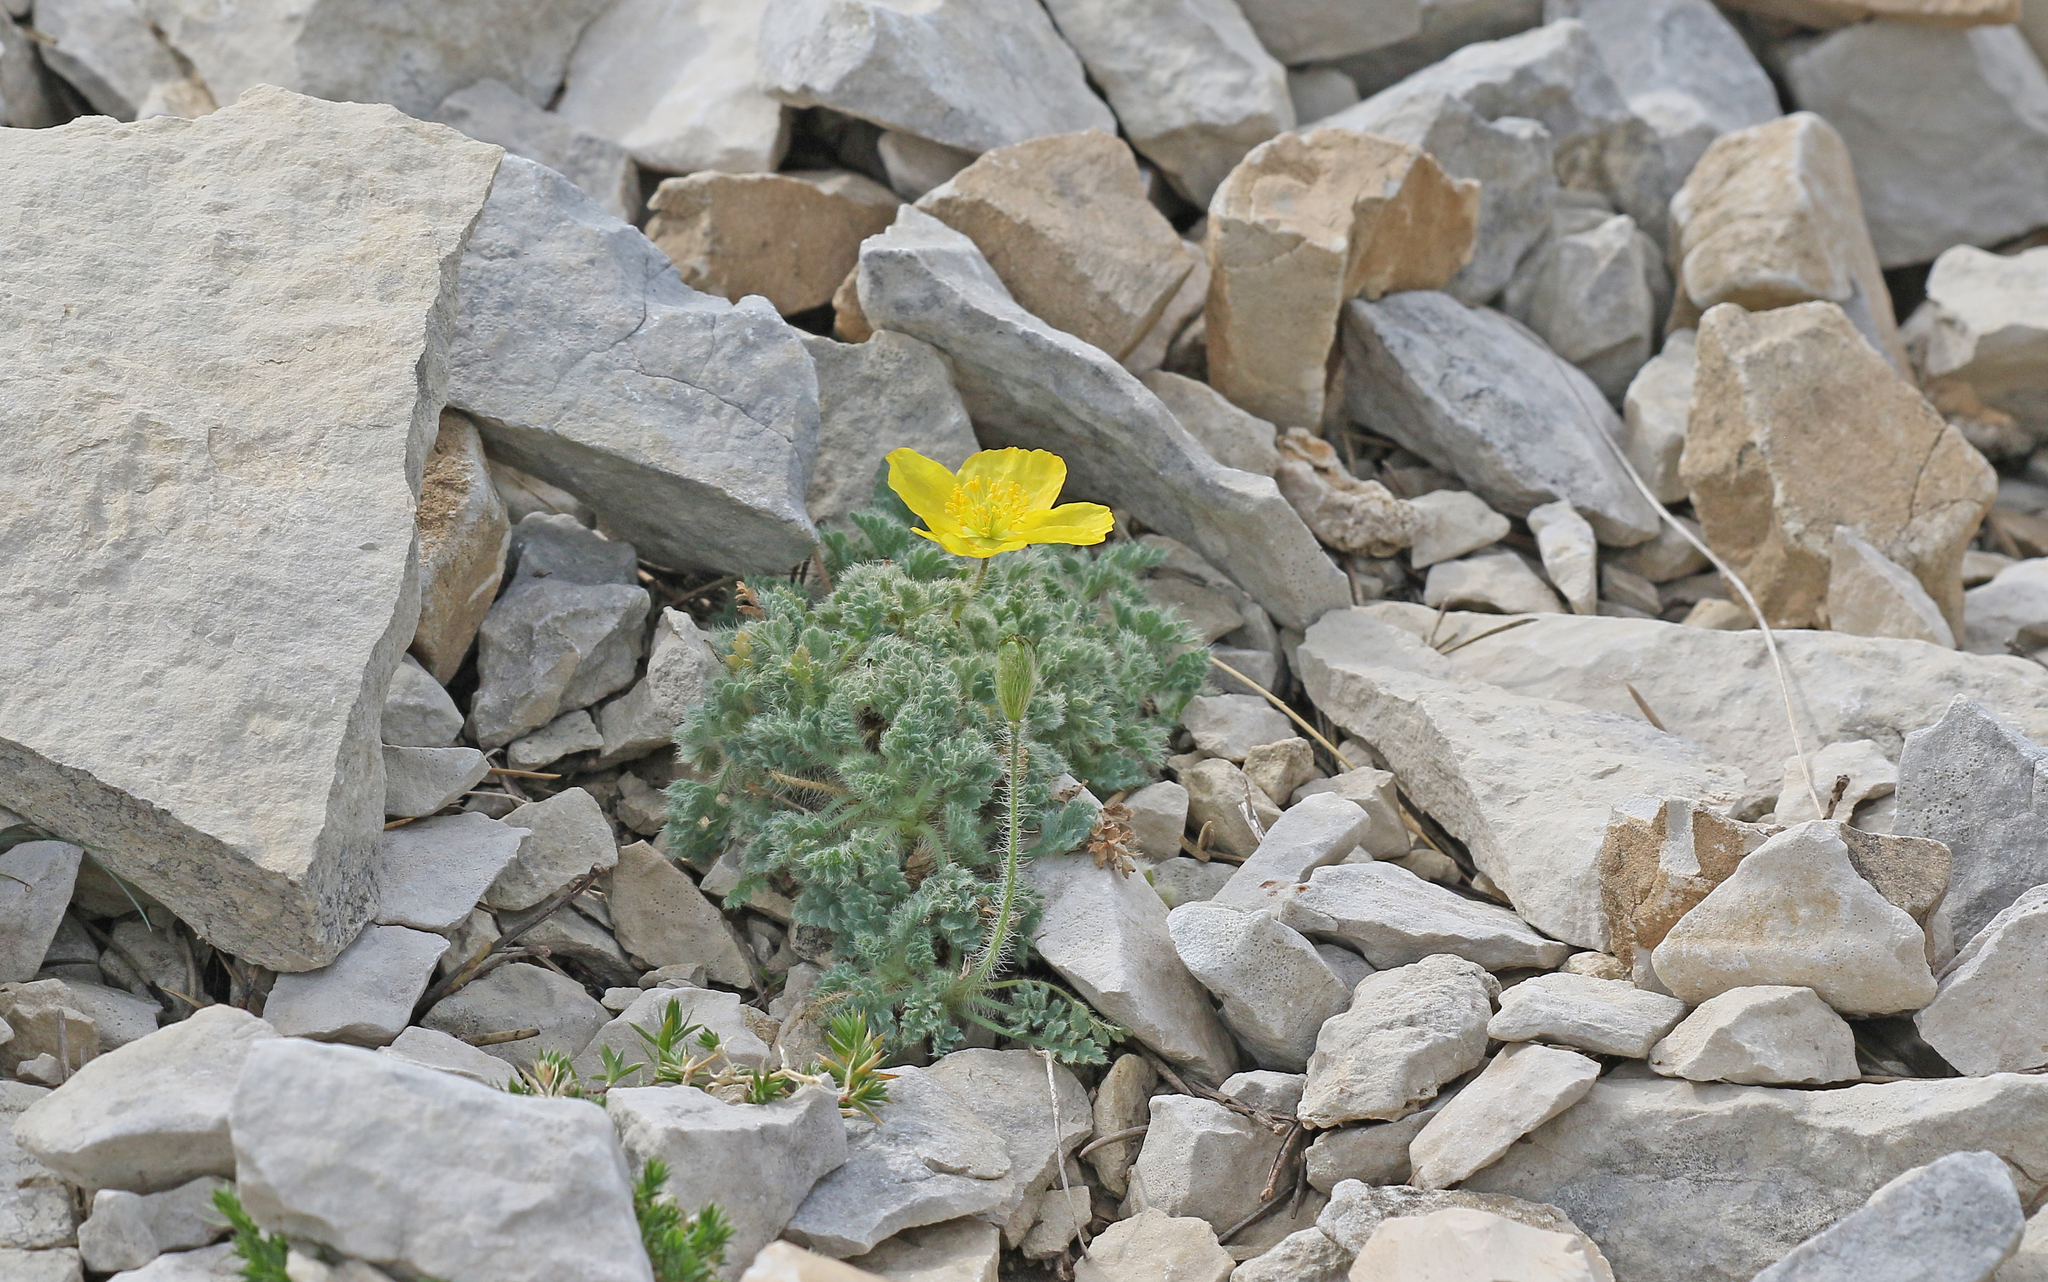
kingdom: Plantae
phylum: Tracheophyta
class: Magnoliopsida
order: Ranunculales
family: Papaveraceae
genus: Papaver
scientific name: Papaver alpinum
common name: Austrian poppy
